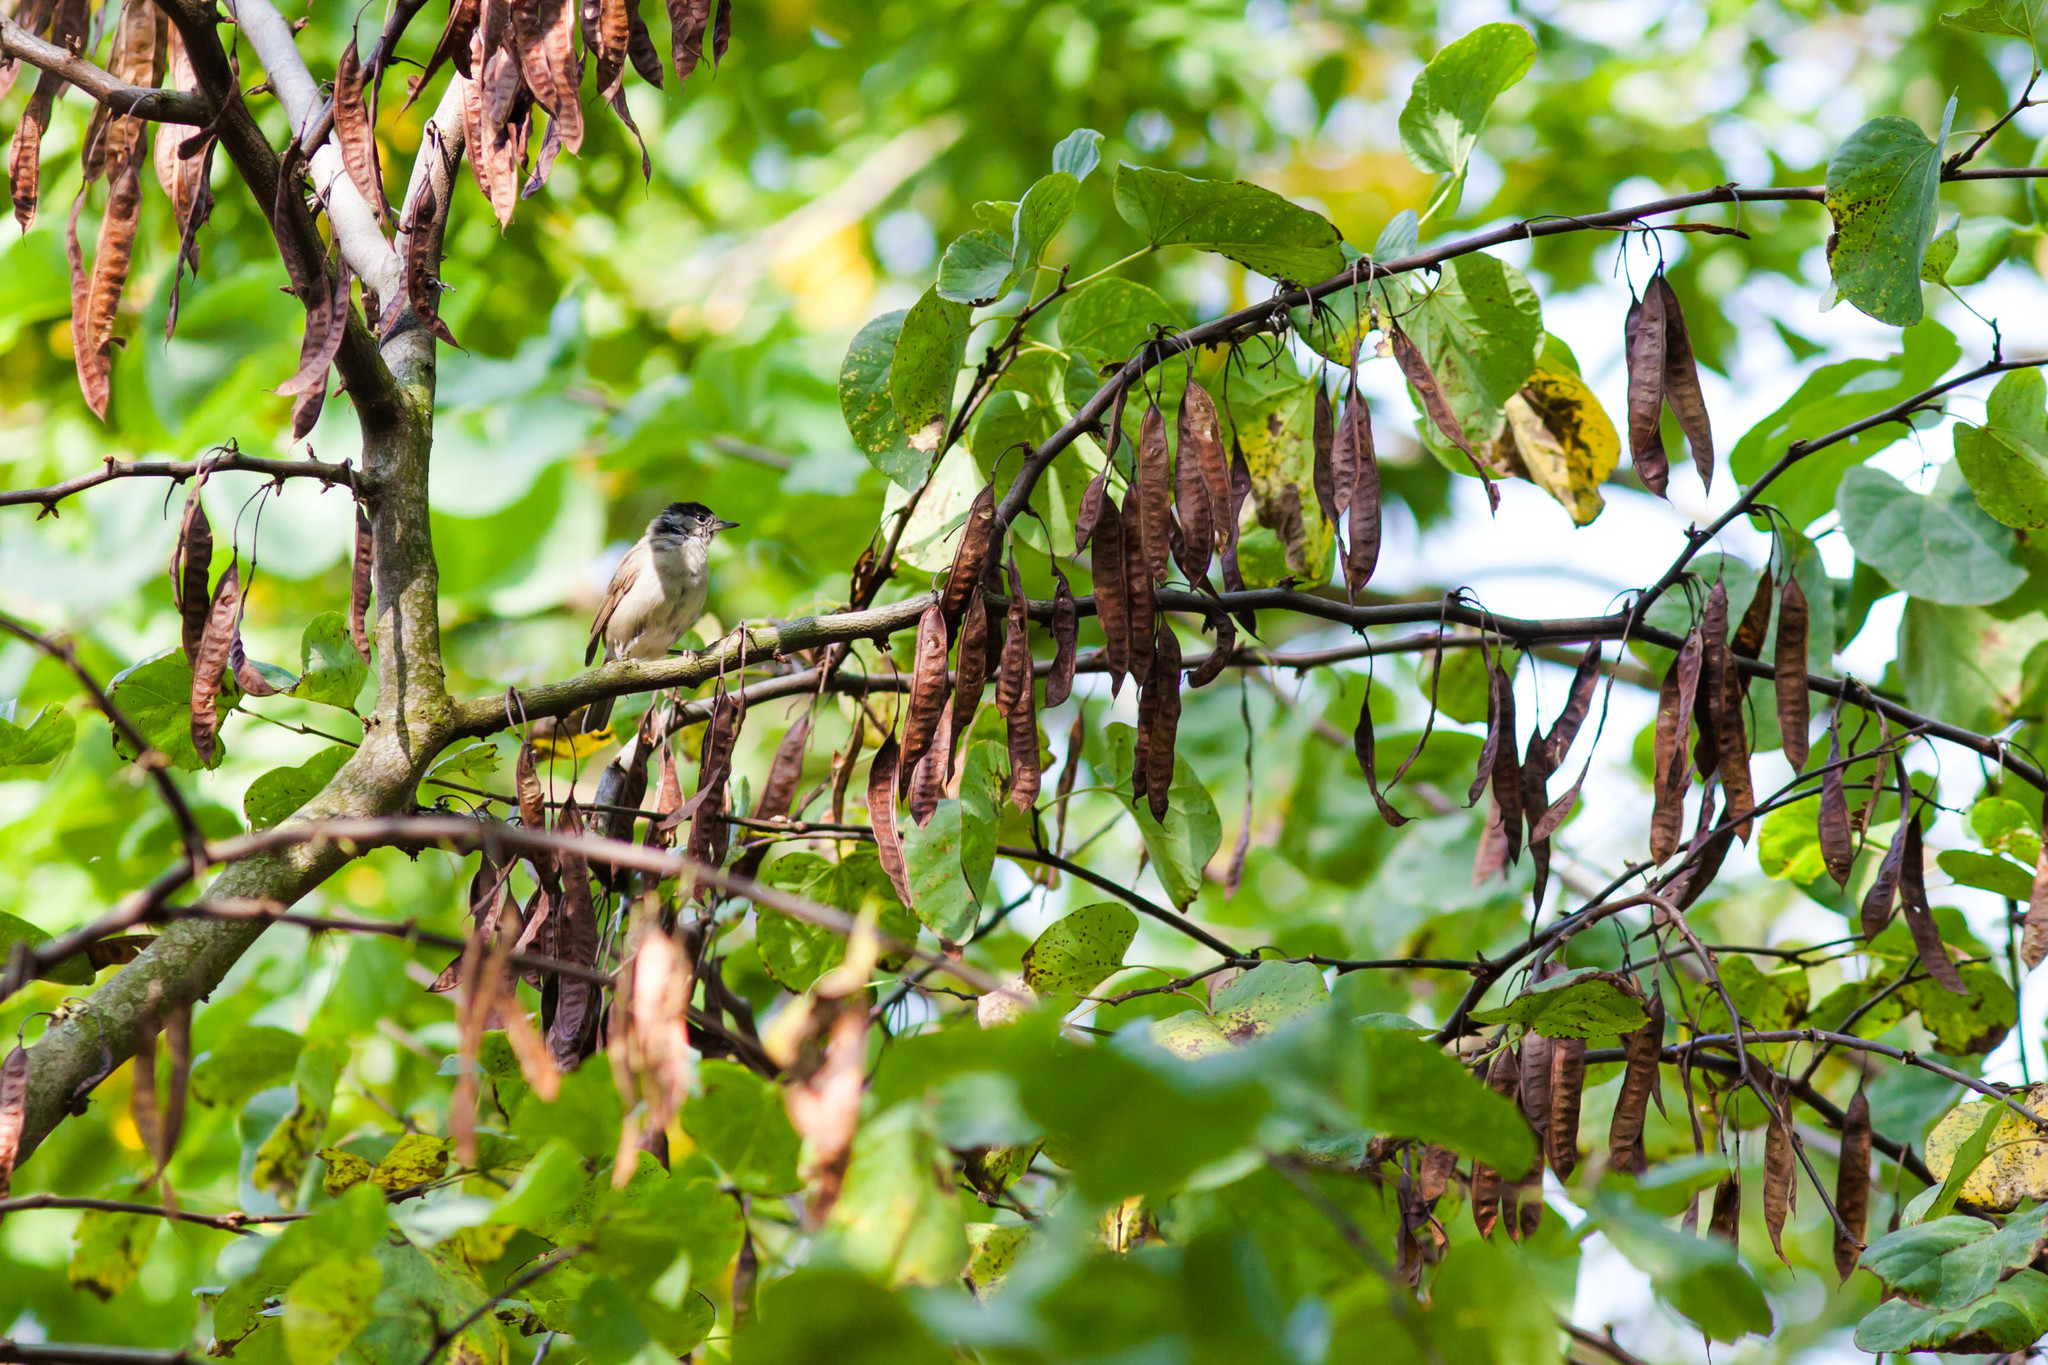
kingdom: Animalia
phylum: Chordata
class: Aves
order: Passeriformes
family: Sylviidae
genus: Sylvia
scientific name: Sylvia atricapilla
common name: Eurasian blackcap
